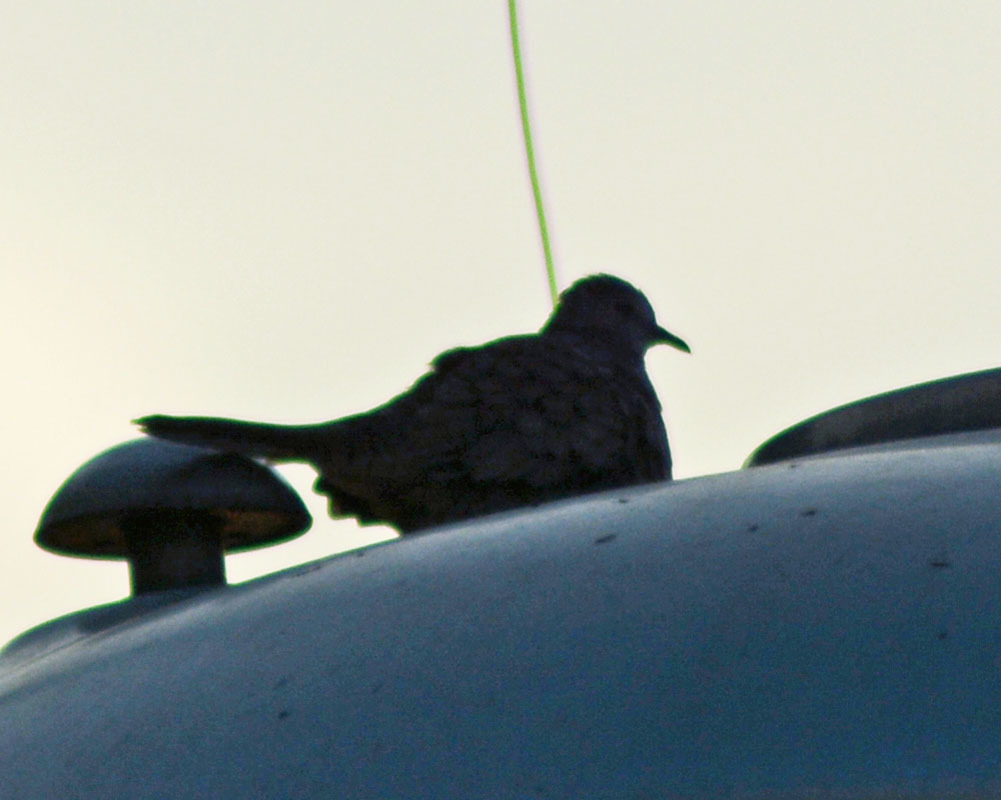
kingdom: Animalia
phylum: Chordata
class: Aves
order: Columbiformes
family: Columbidae
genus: Columbina
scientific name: Columbina inca
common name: Inca dove
